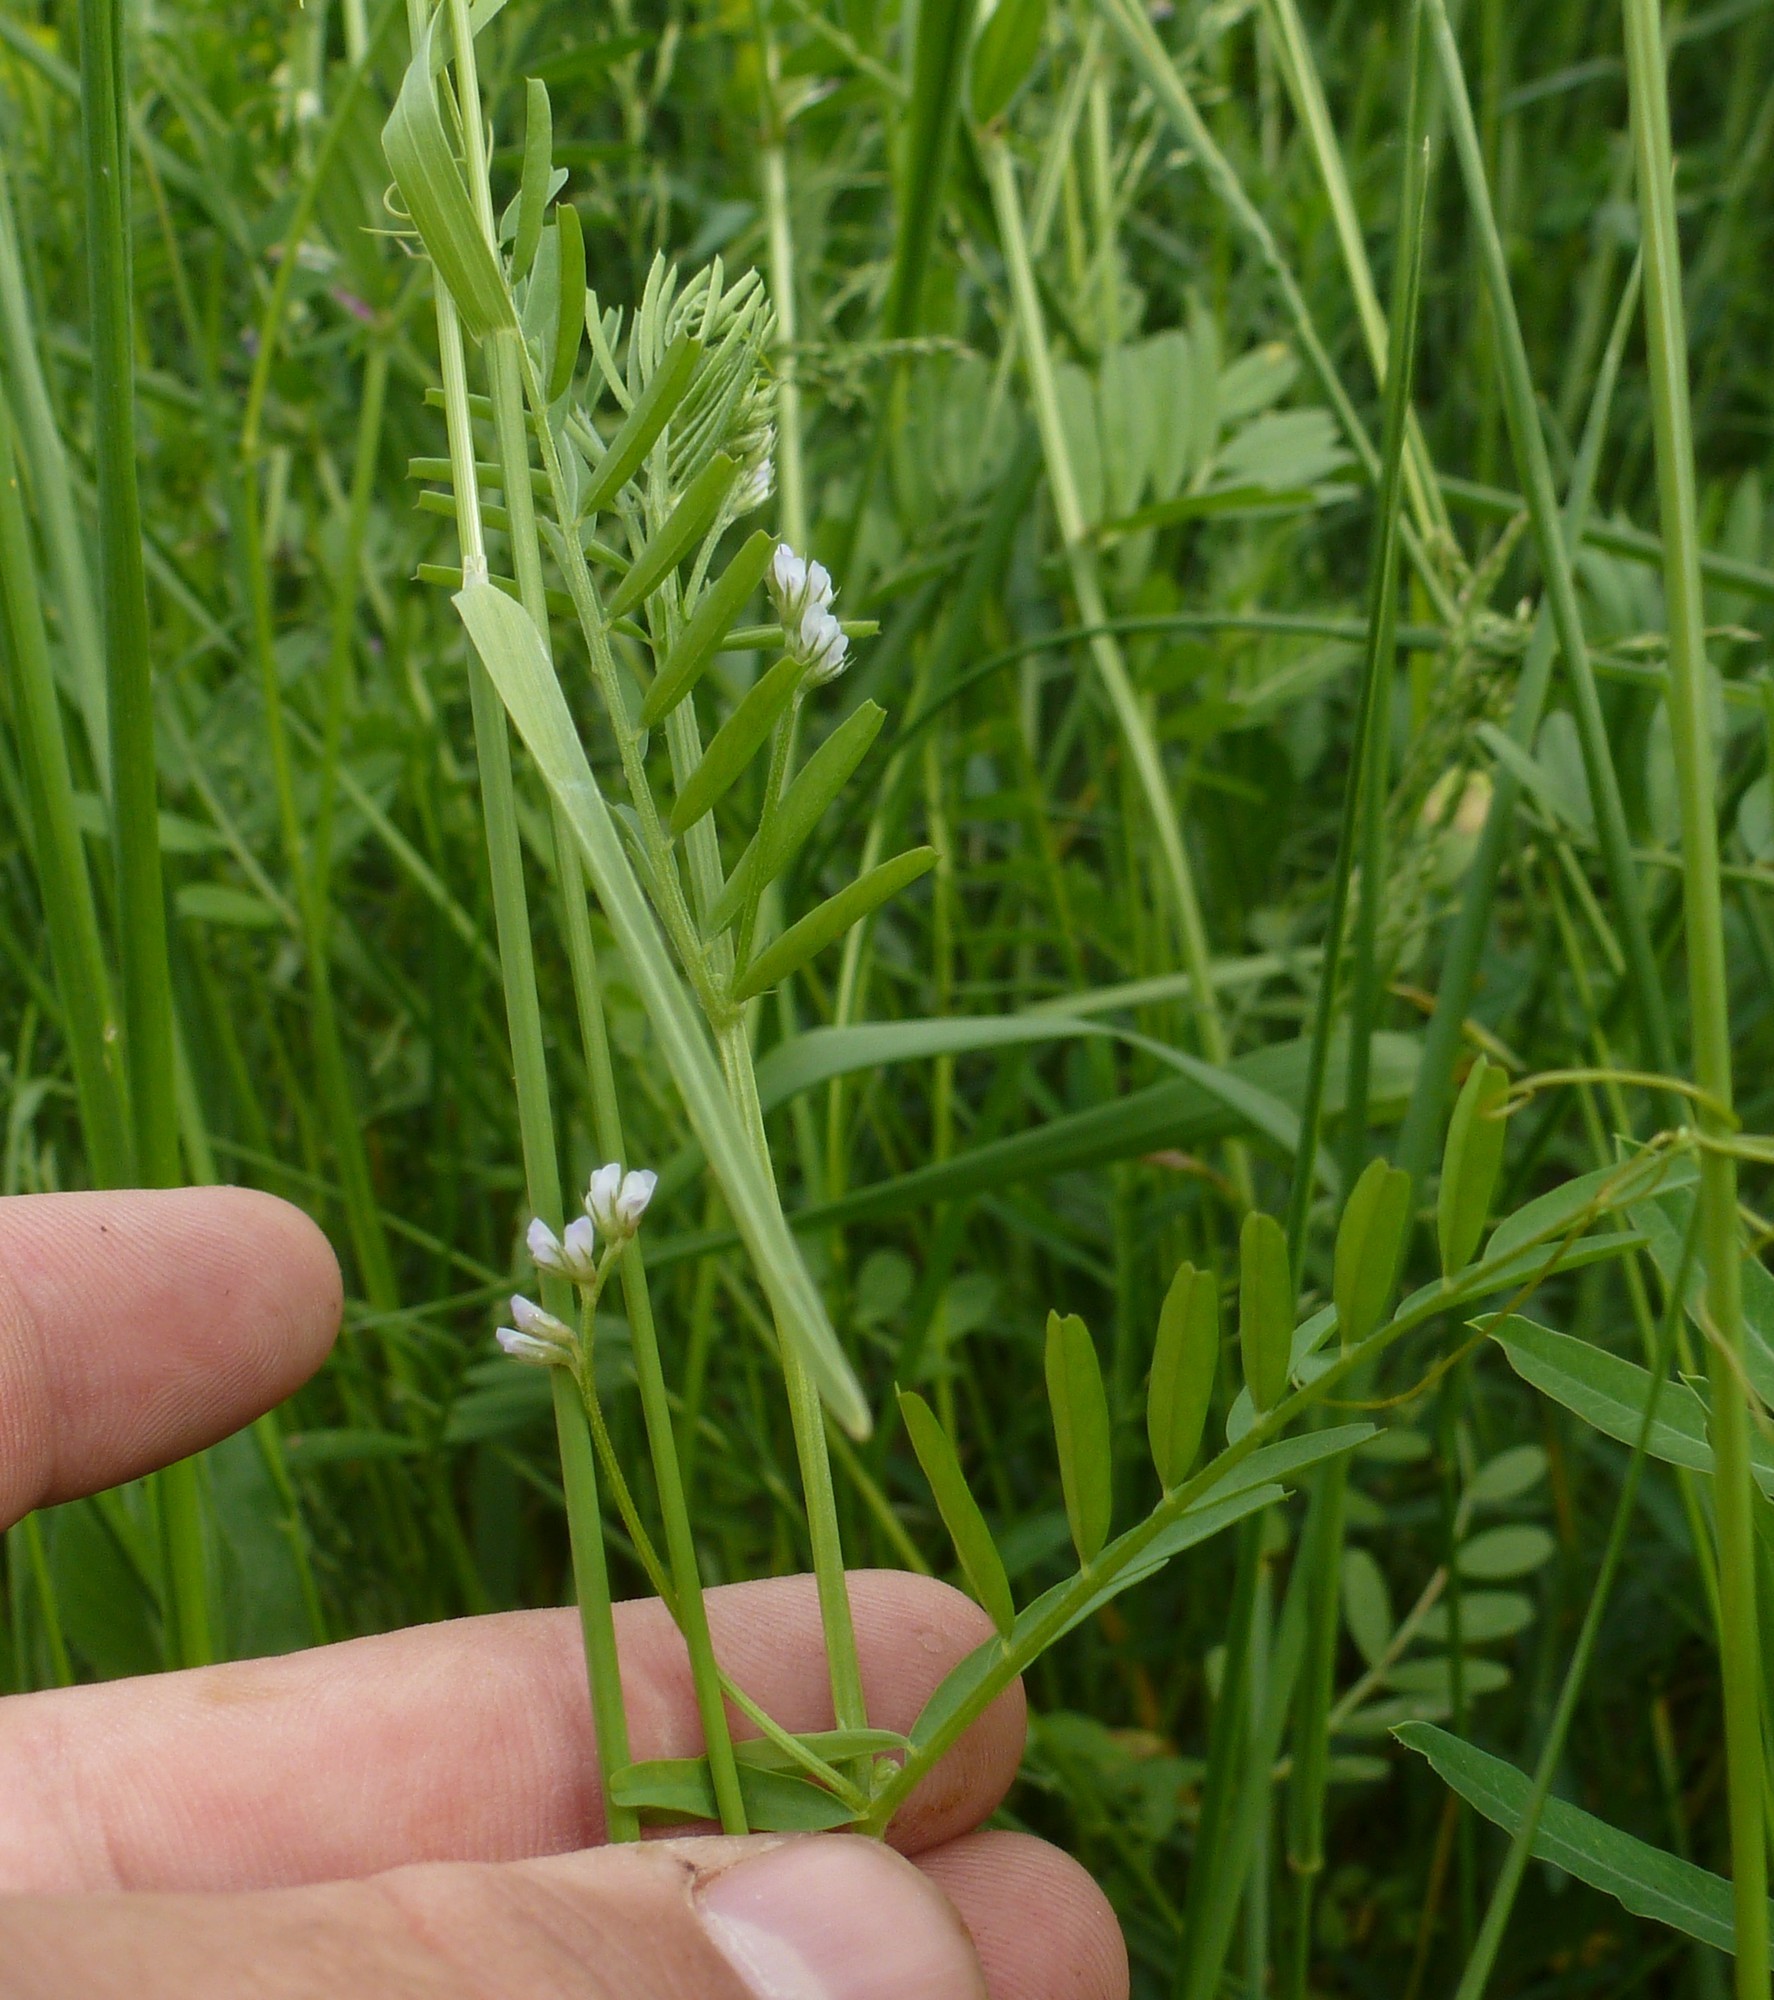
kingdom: Plantae
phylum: Tracheophyta
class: Magnoliopsida
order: Fabales
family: Fabaceae
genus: Vicia
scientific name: Vicia hirsuta
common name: Tiny vetch
